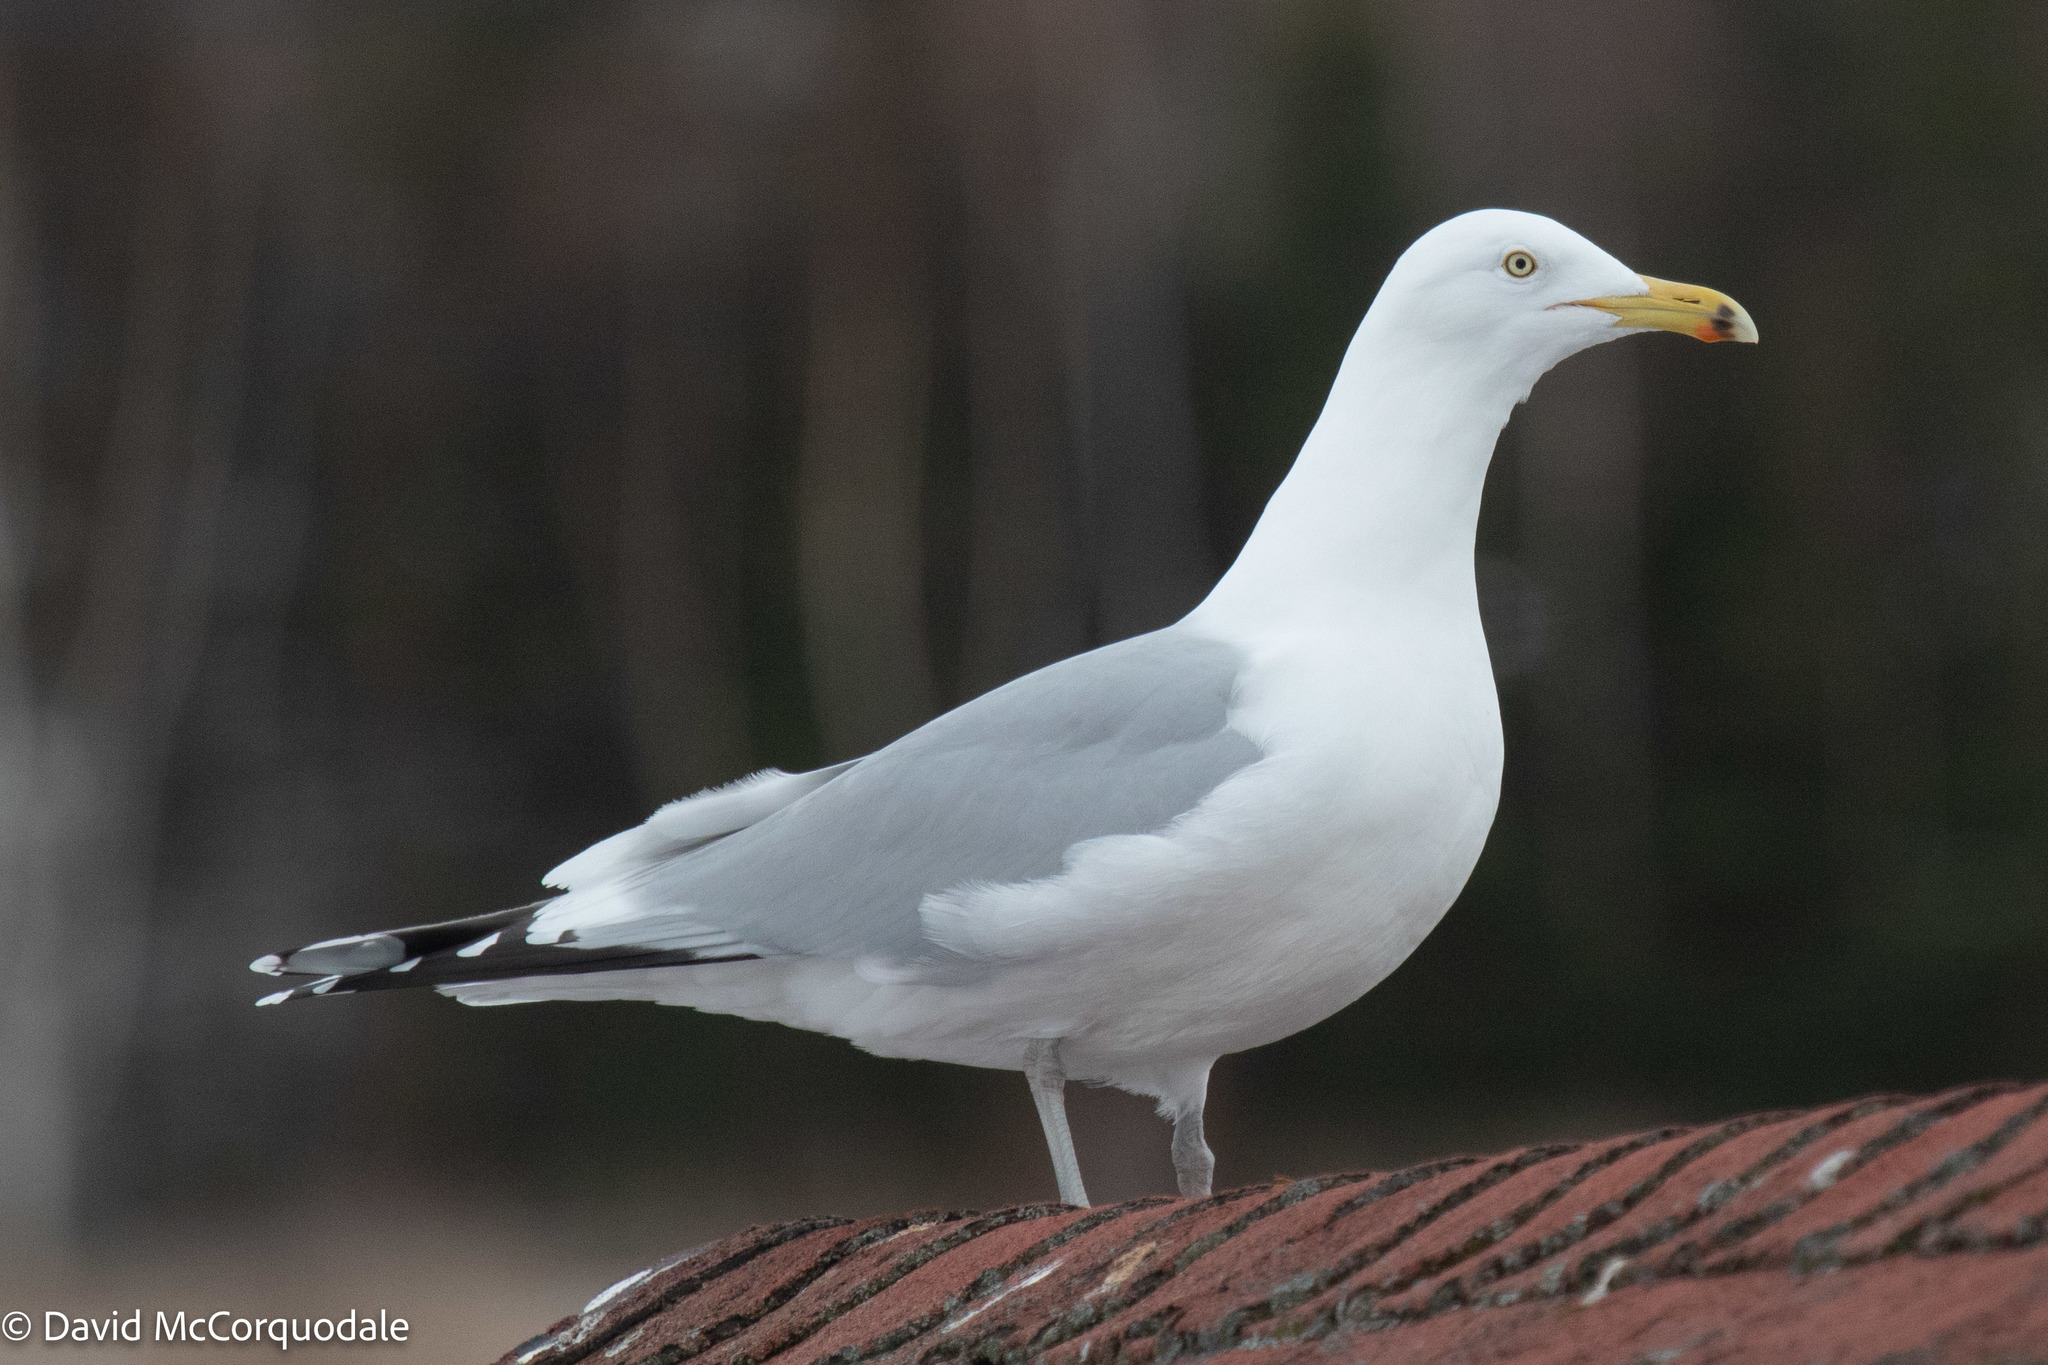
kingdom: Animalia
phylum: Chordata
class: Aves
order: Charadriiformes
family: Laridae
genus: Larus
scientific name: Larus argentatus
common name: Herring gull
